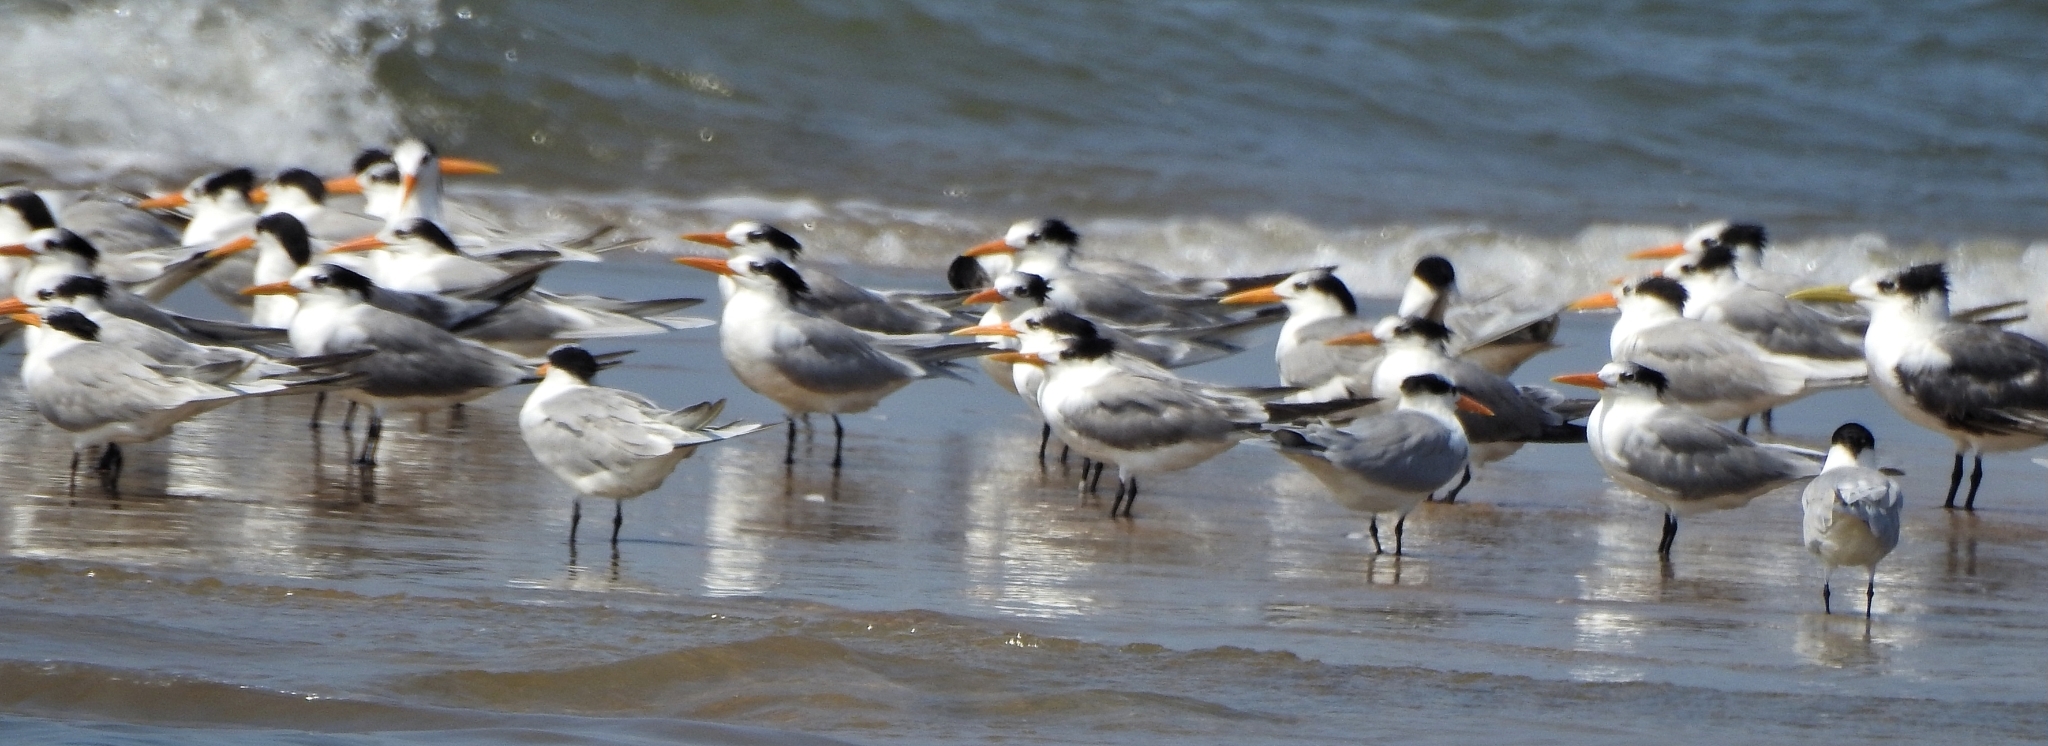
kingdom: Animalia
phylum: Chordata
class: Aves
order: Charadriiformes
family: Laridae
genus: Thalasseus
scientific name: Thalasseus bengalensis
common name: Lesser crested tern
